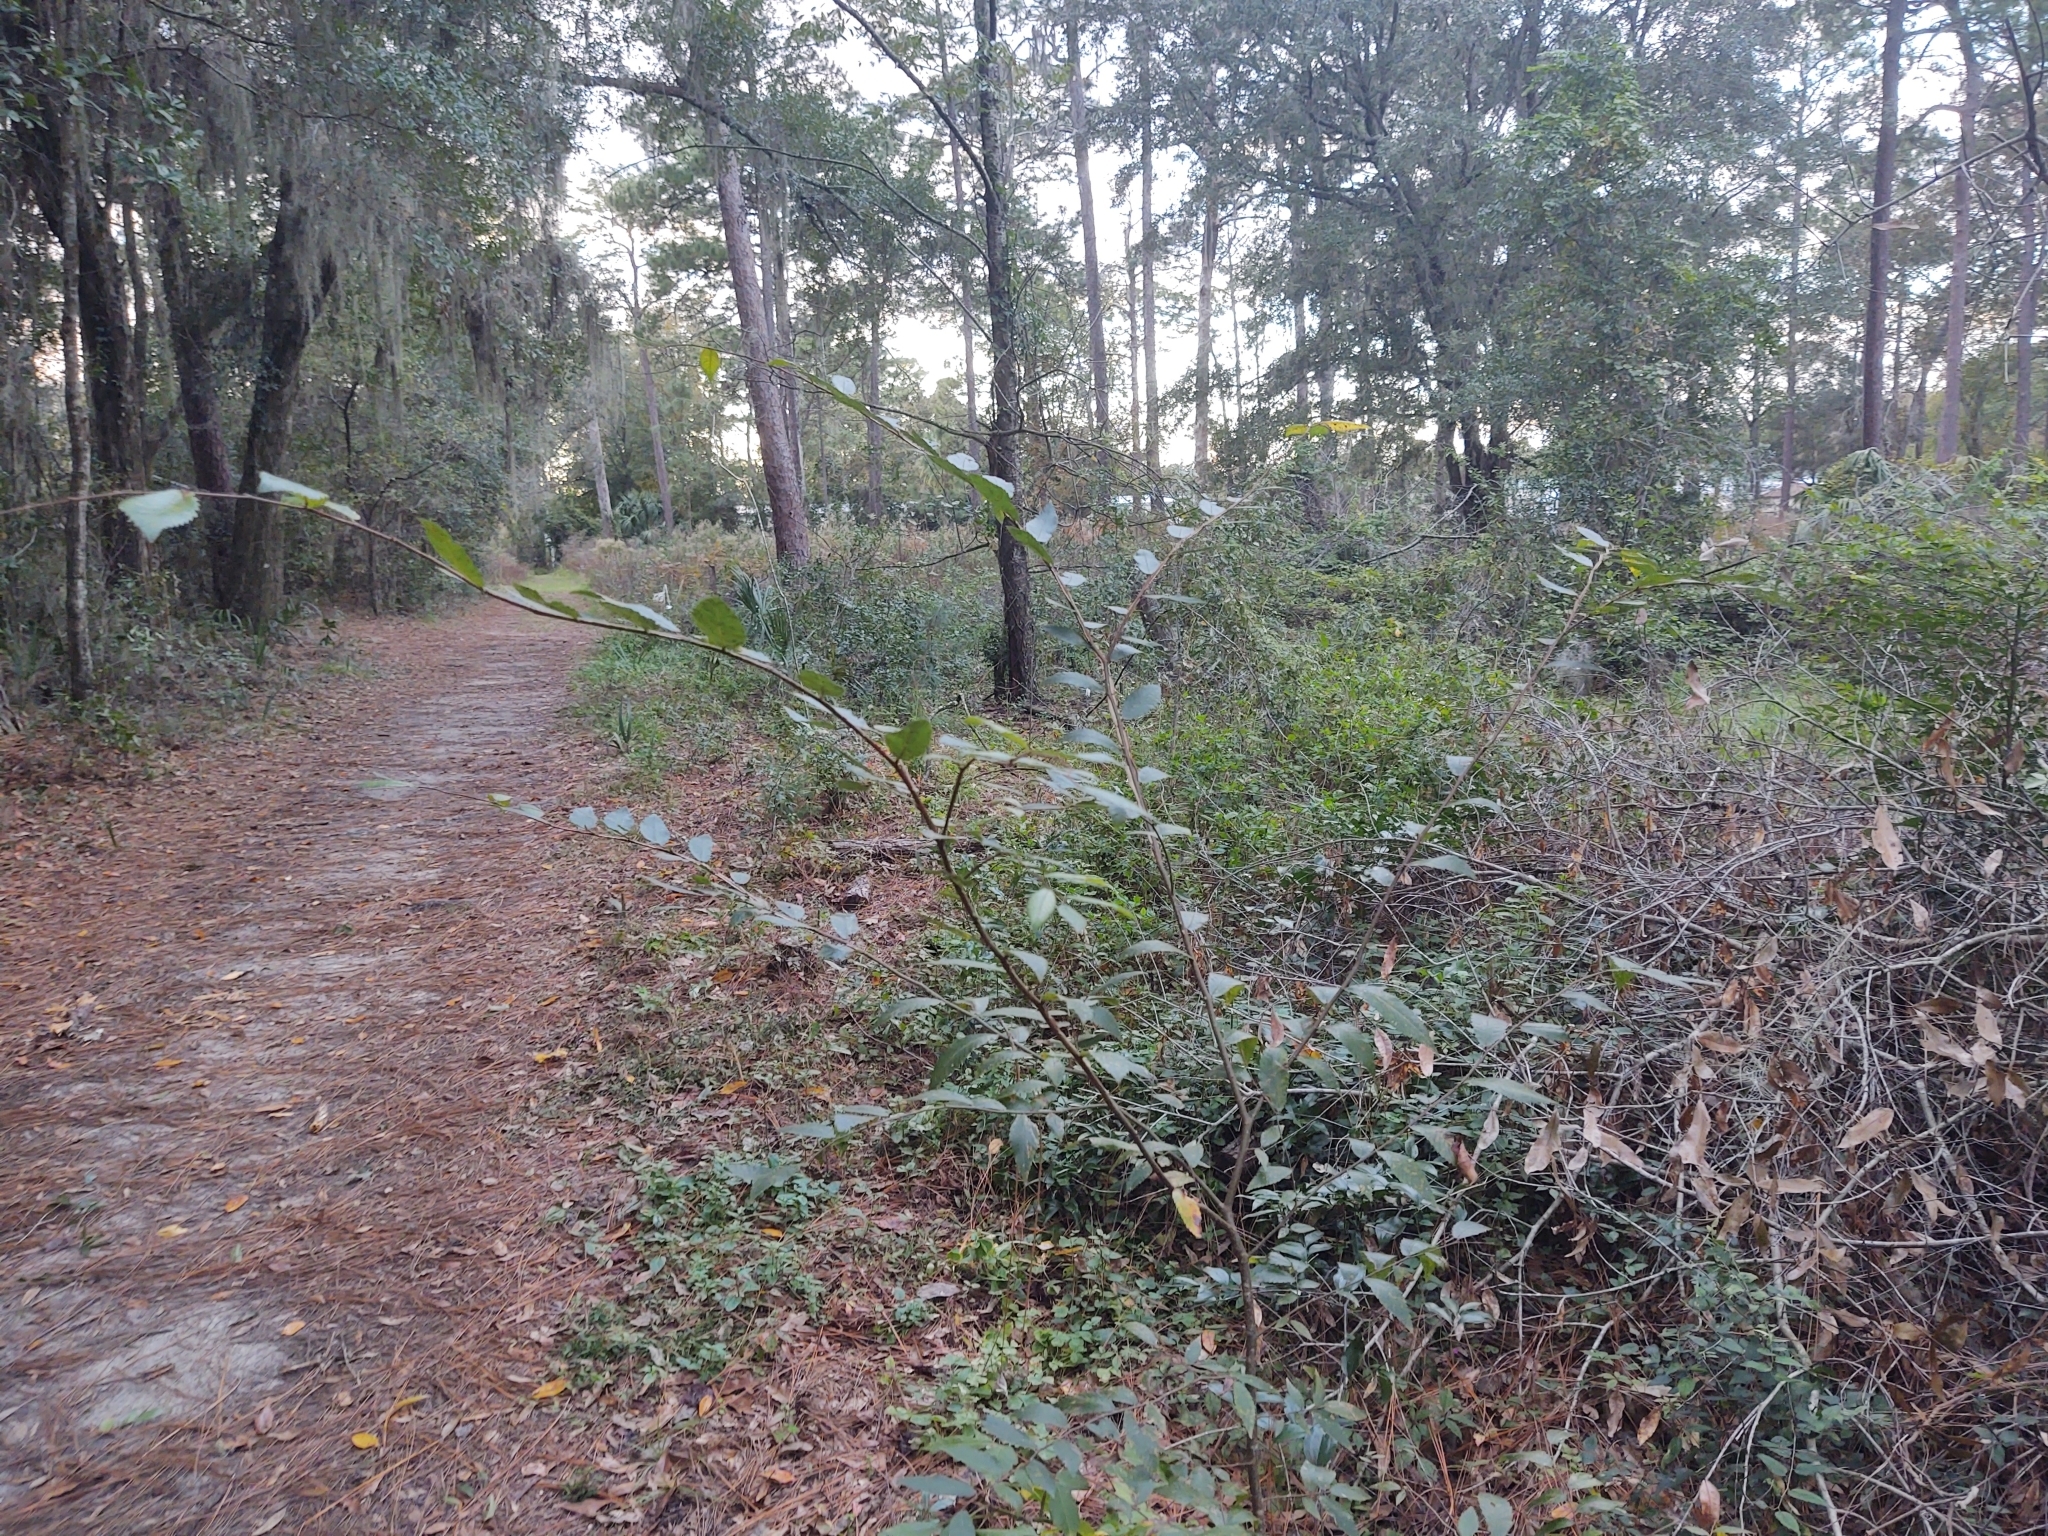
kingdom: Plantae
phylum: Tracheophyta
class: Magnoliopsida
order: Rosales
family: Ulmaceae
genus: Ulmus
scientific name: Ulmus alata
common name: Winged elm
